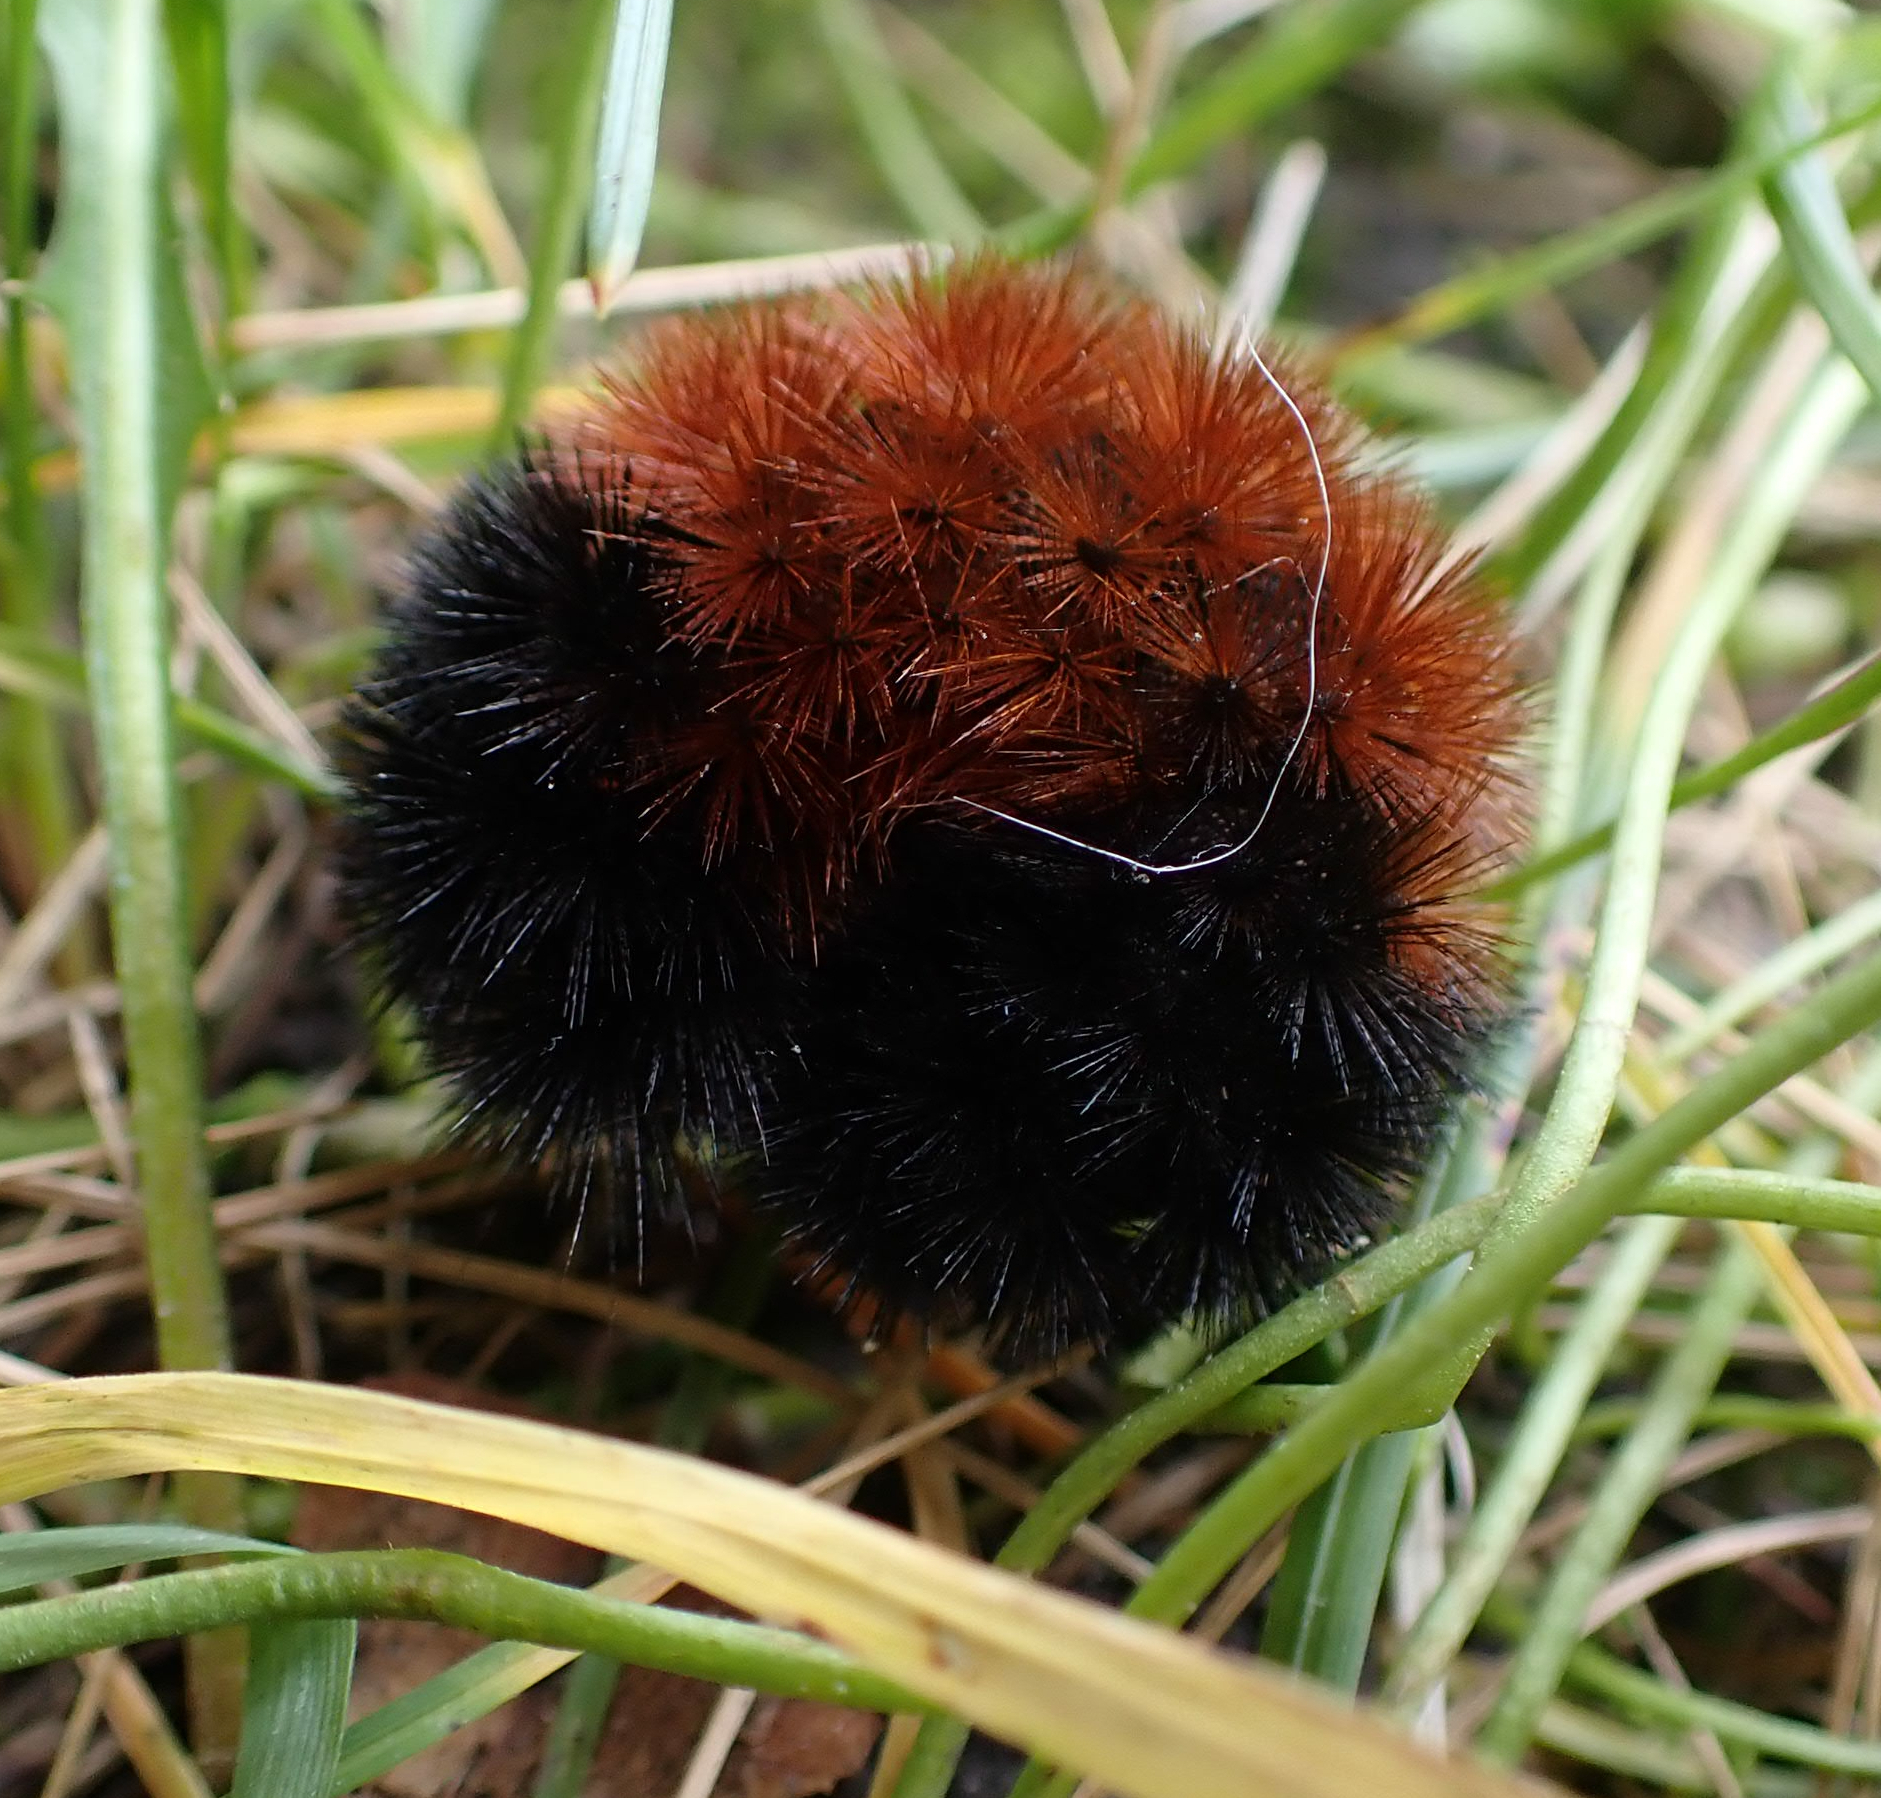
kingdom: Animalia
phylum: Arthropoda
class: Insecta
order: Lepidoptera
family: Erebidae
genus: Pyrrharctia
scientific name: Pyrrharctia isabella
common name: Isabella tiger moth
